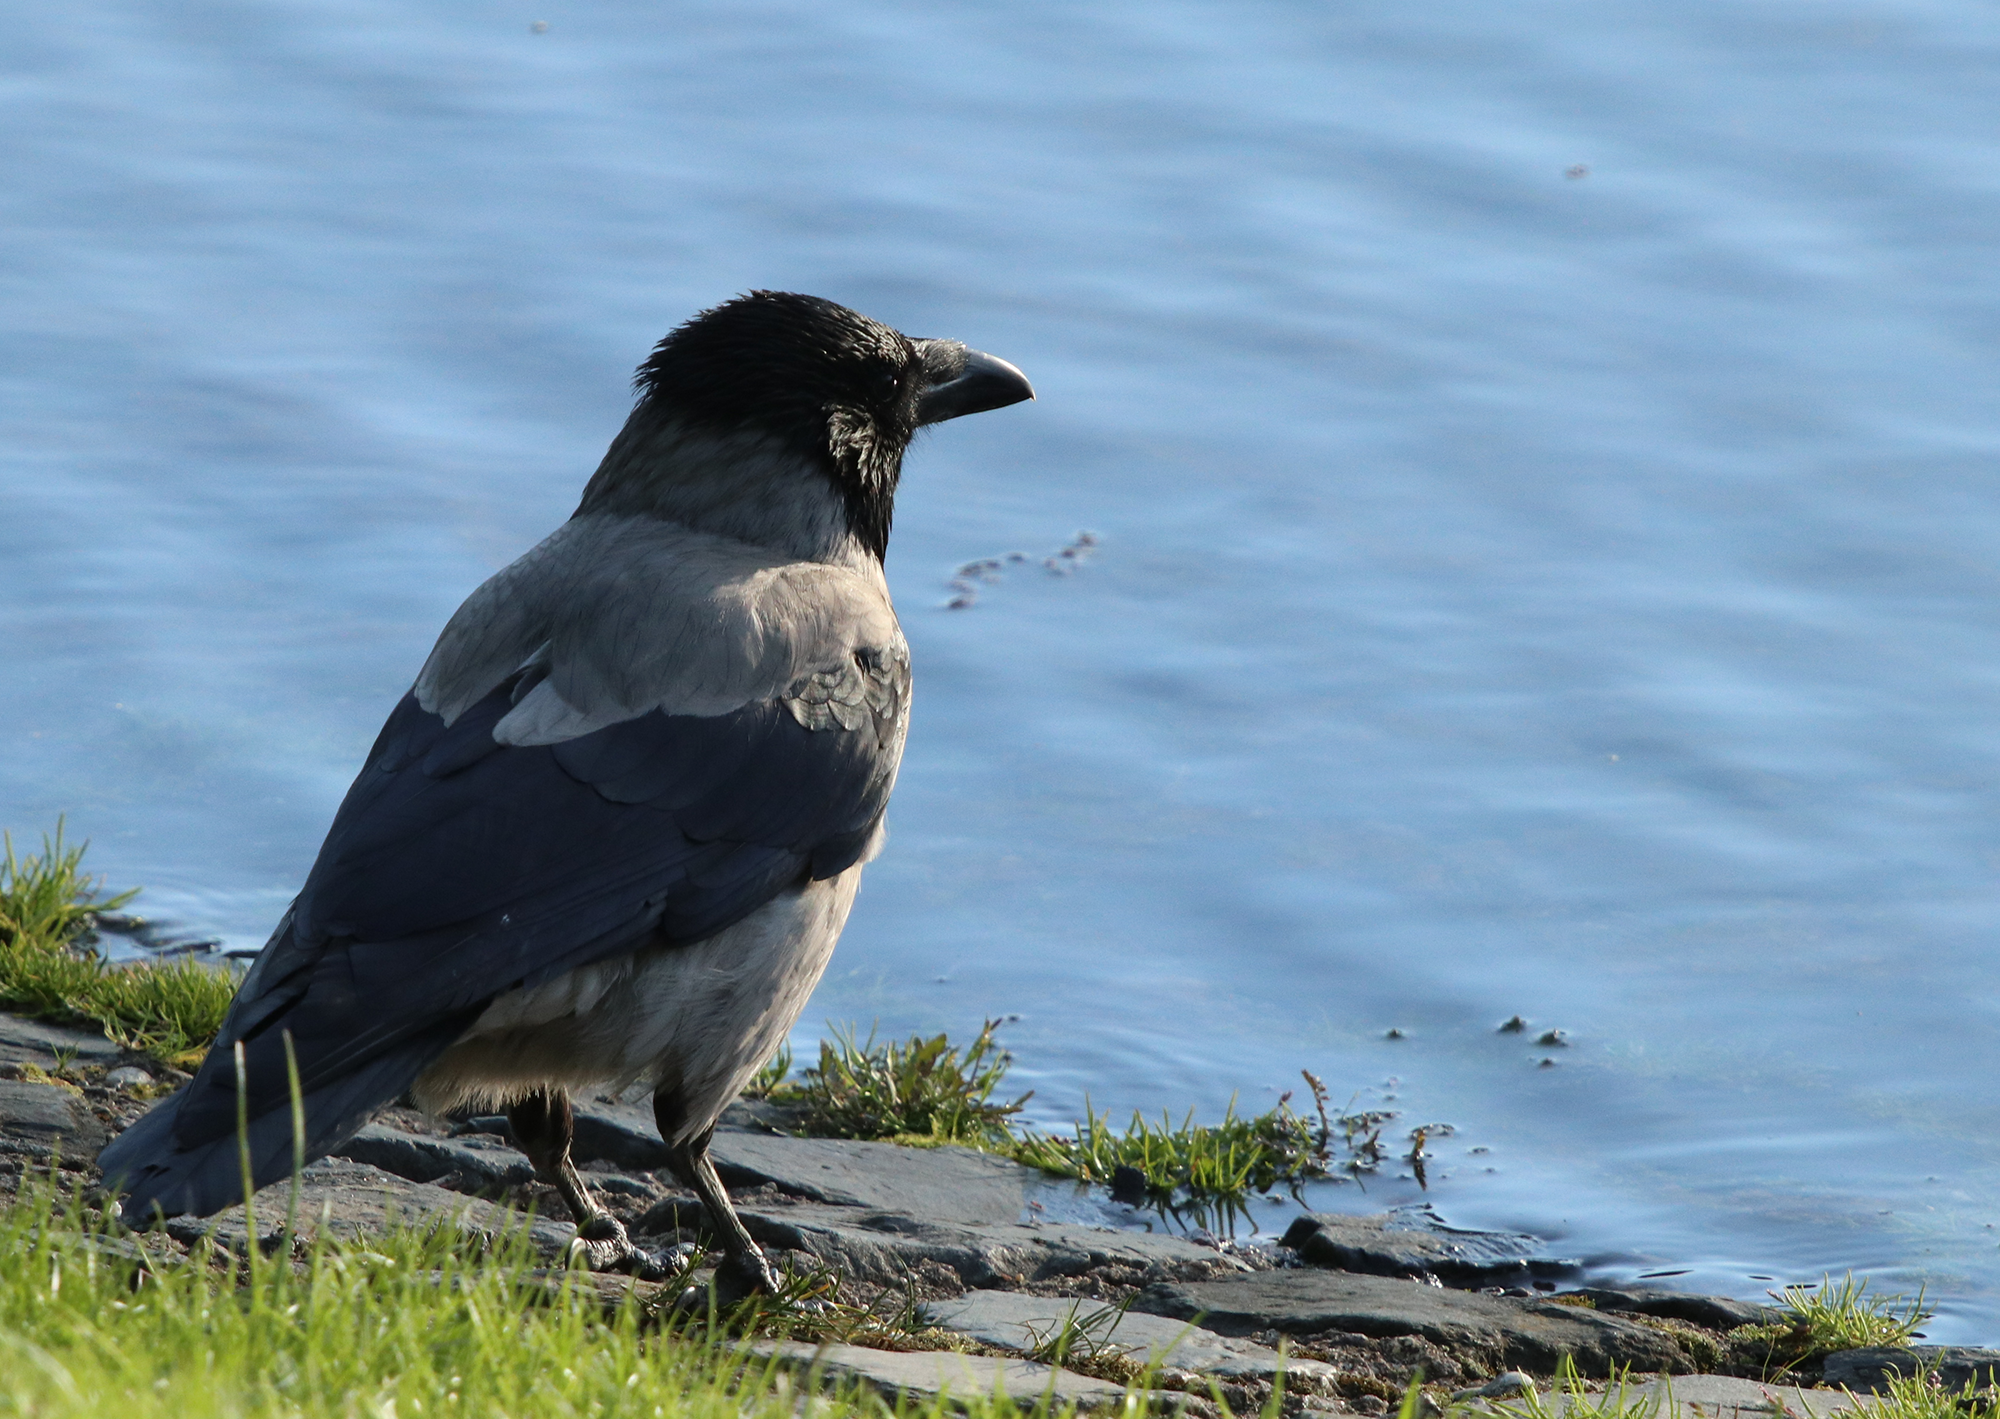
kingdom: Animalia
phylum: Chordata
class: Aves
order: Passeriformes
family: Corvidae
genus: Corvus
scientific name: Corvus cornix
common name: Hooded crow
